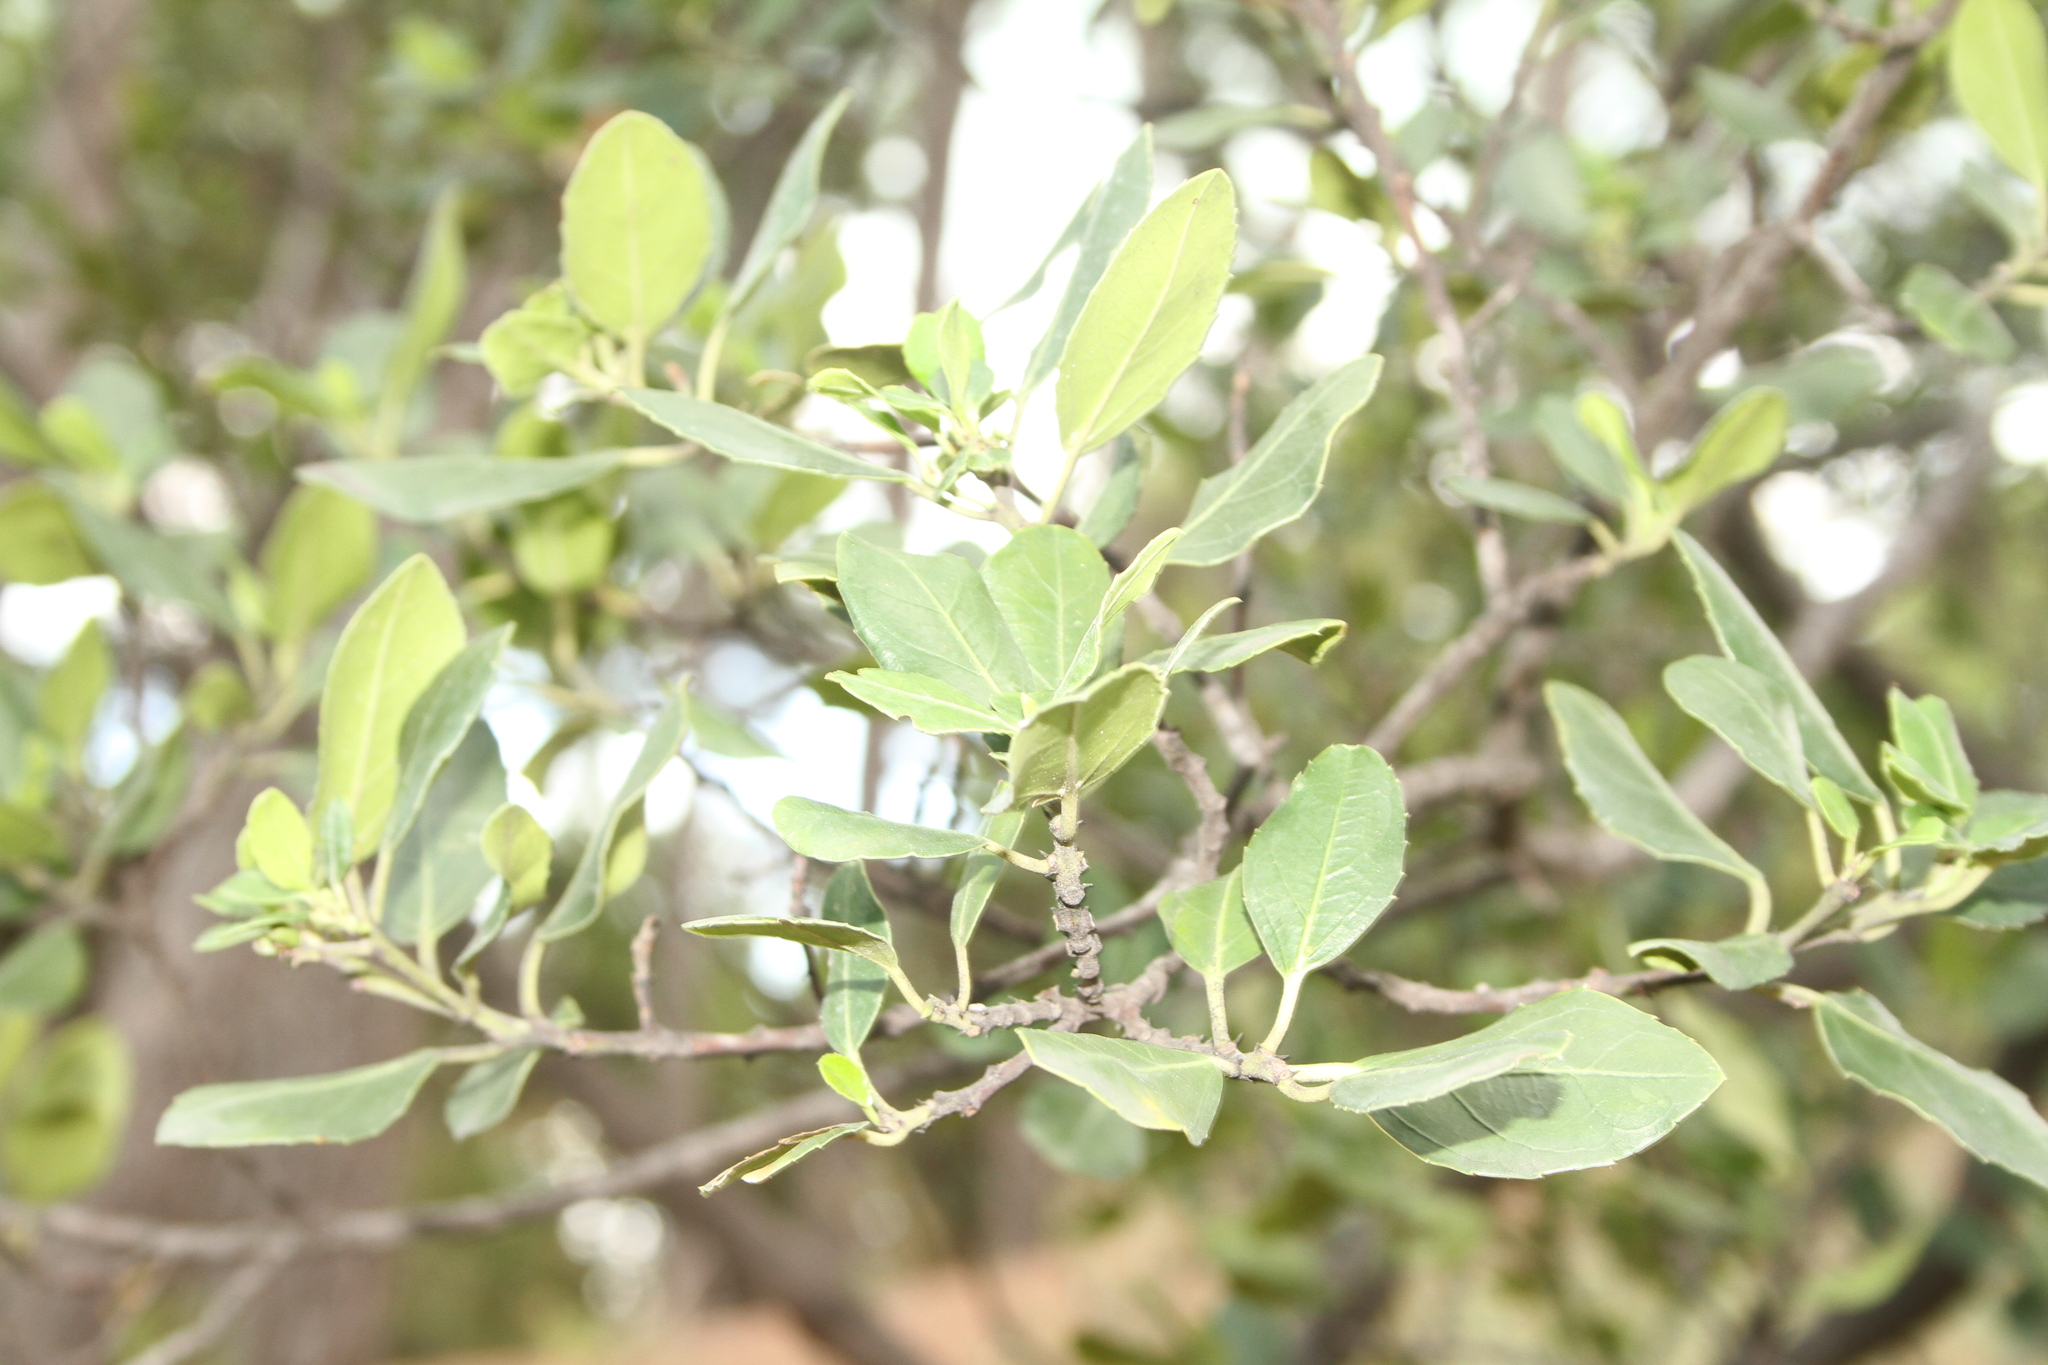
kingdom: Plantae
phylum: Tracheophyta
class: Magnoliopsida
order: Rosales
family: Rhamnaceae
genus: Rhamnus
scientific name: Rhamnus alaternus
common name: Mediterranean buckthorn
